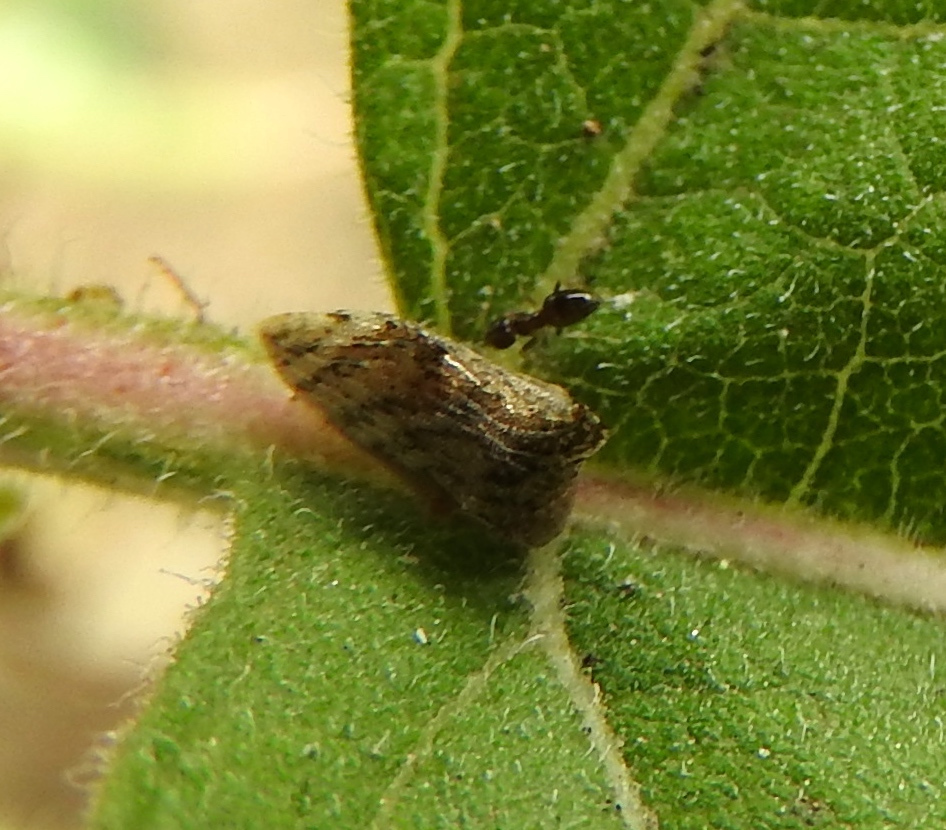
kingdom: Animalia
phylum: Arthropoda
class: Insecta
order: Hymenoptera
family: Formicidae
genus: Brachymyrmex
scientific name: Brachymyrmex
